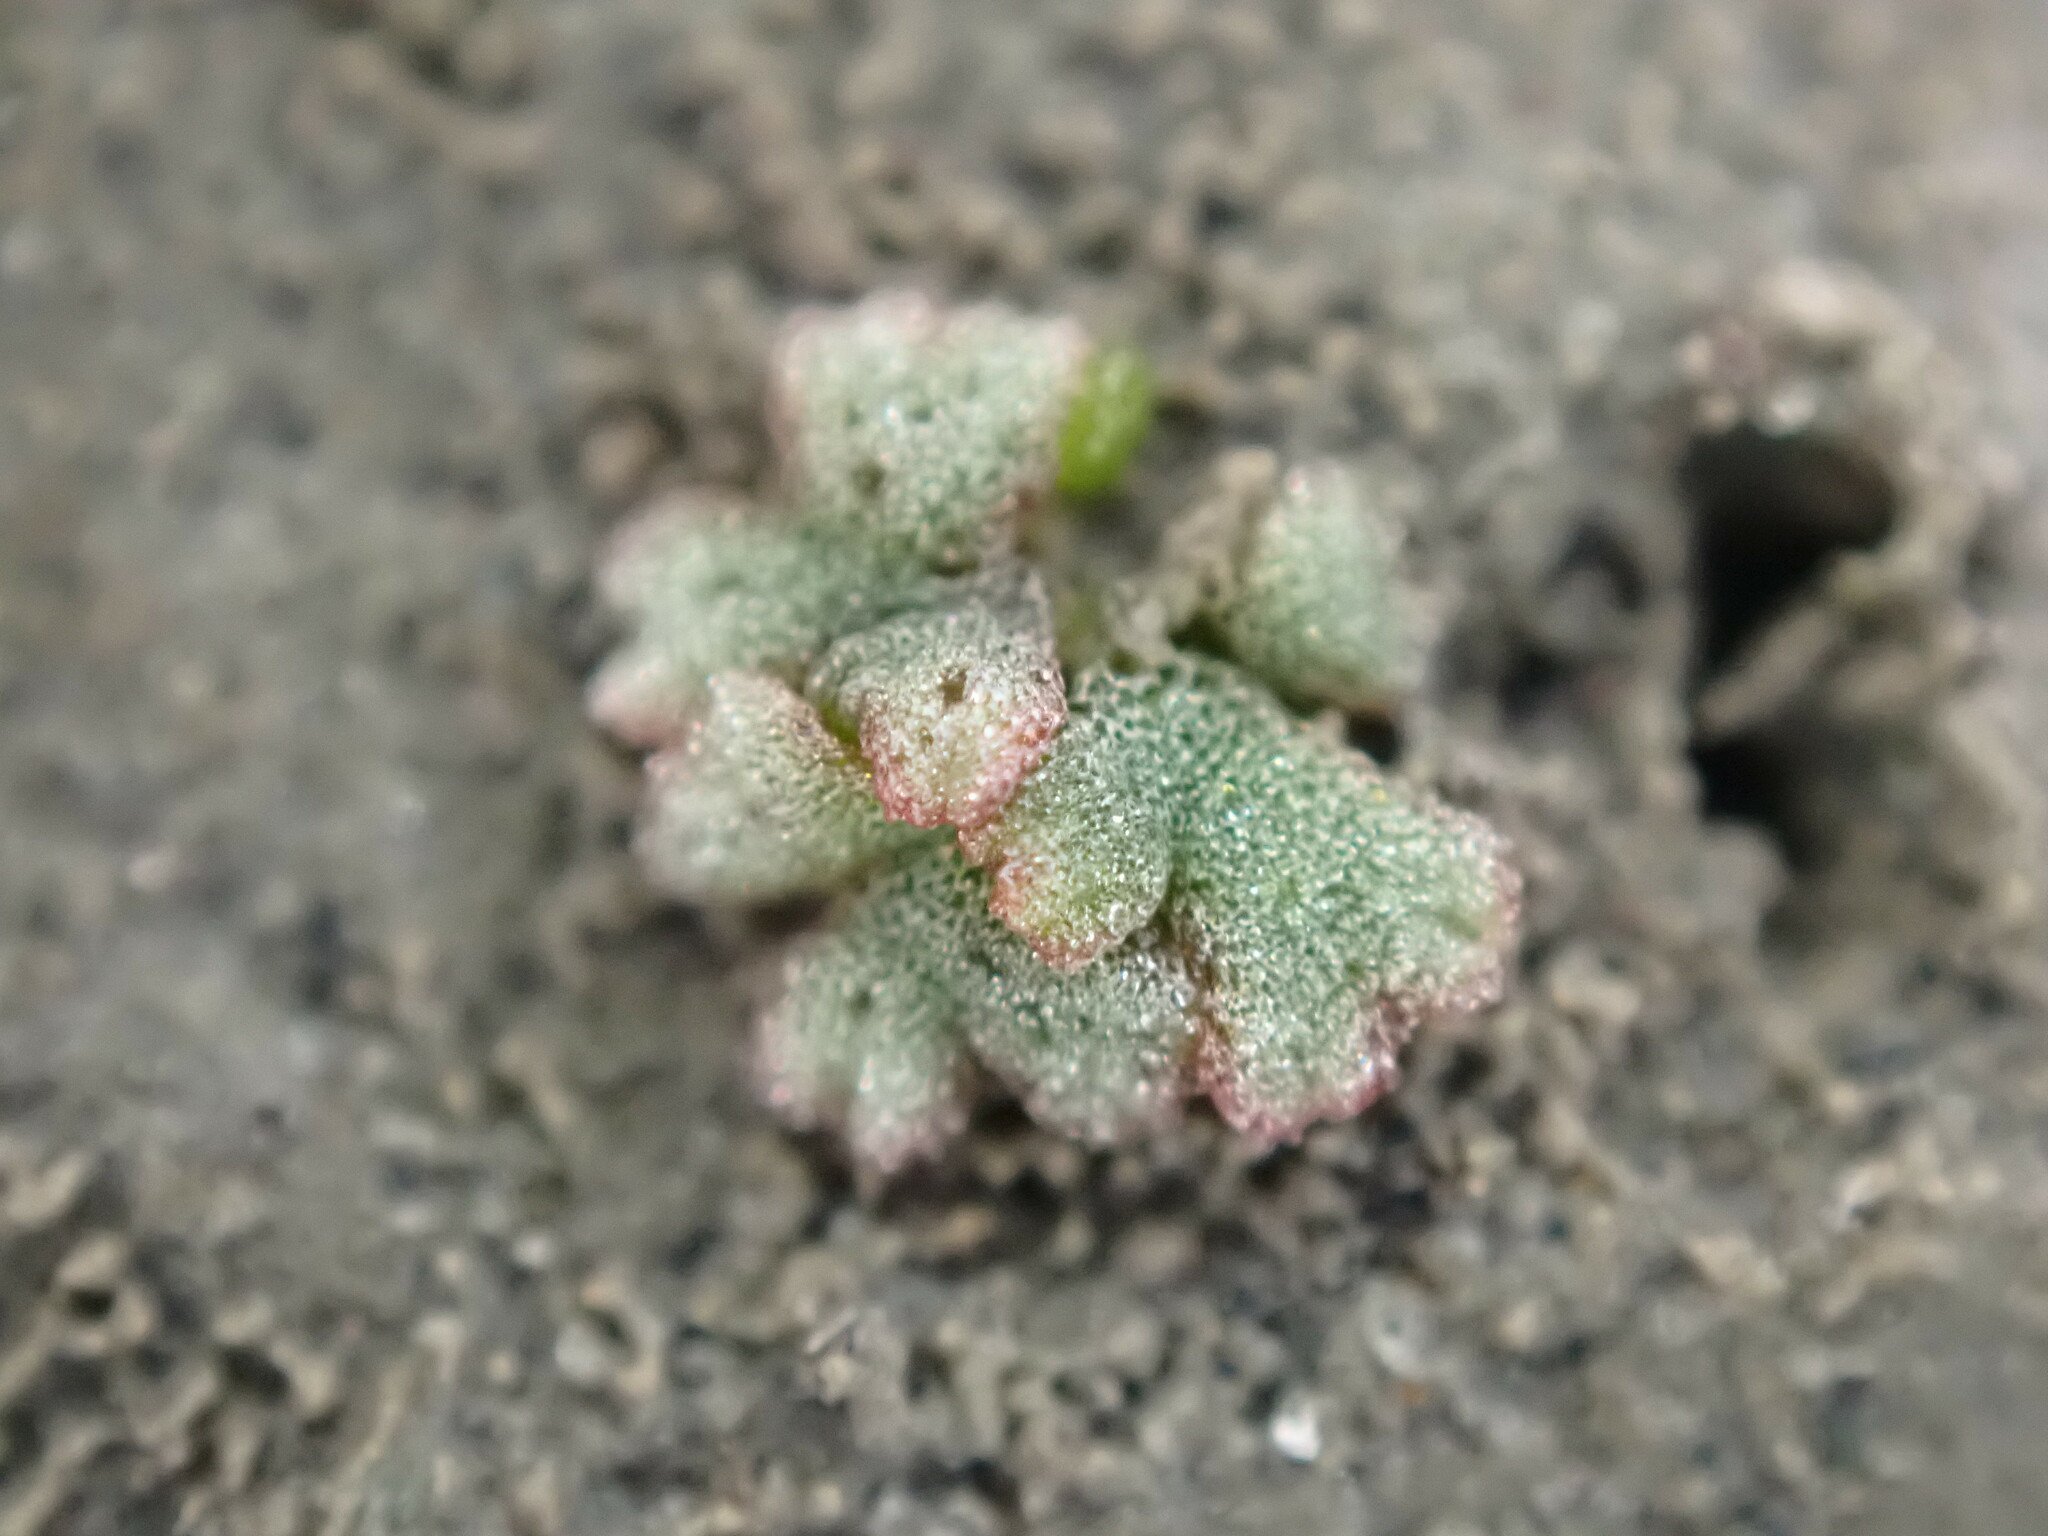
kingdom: Plantae
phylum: Marchantiophyta
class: Marchantiopsida
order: Marchantiales
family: Ricciaceae
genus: Riccia
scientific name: Riccia frostii
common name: Frost s crystalwort
